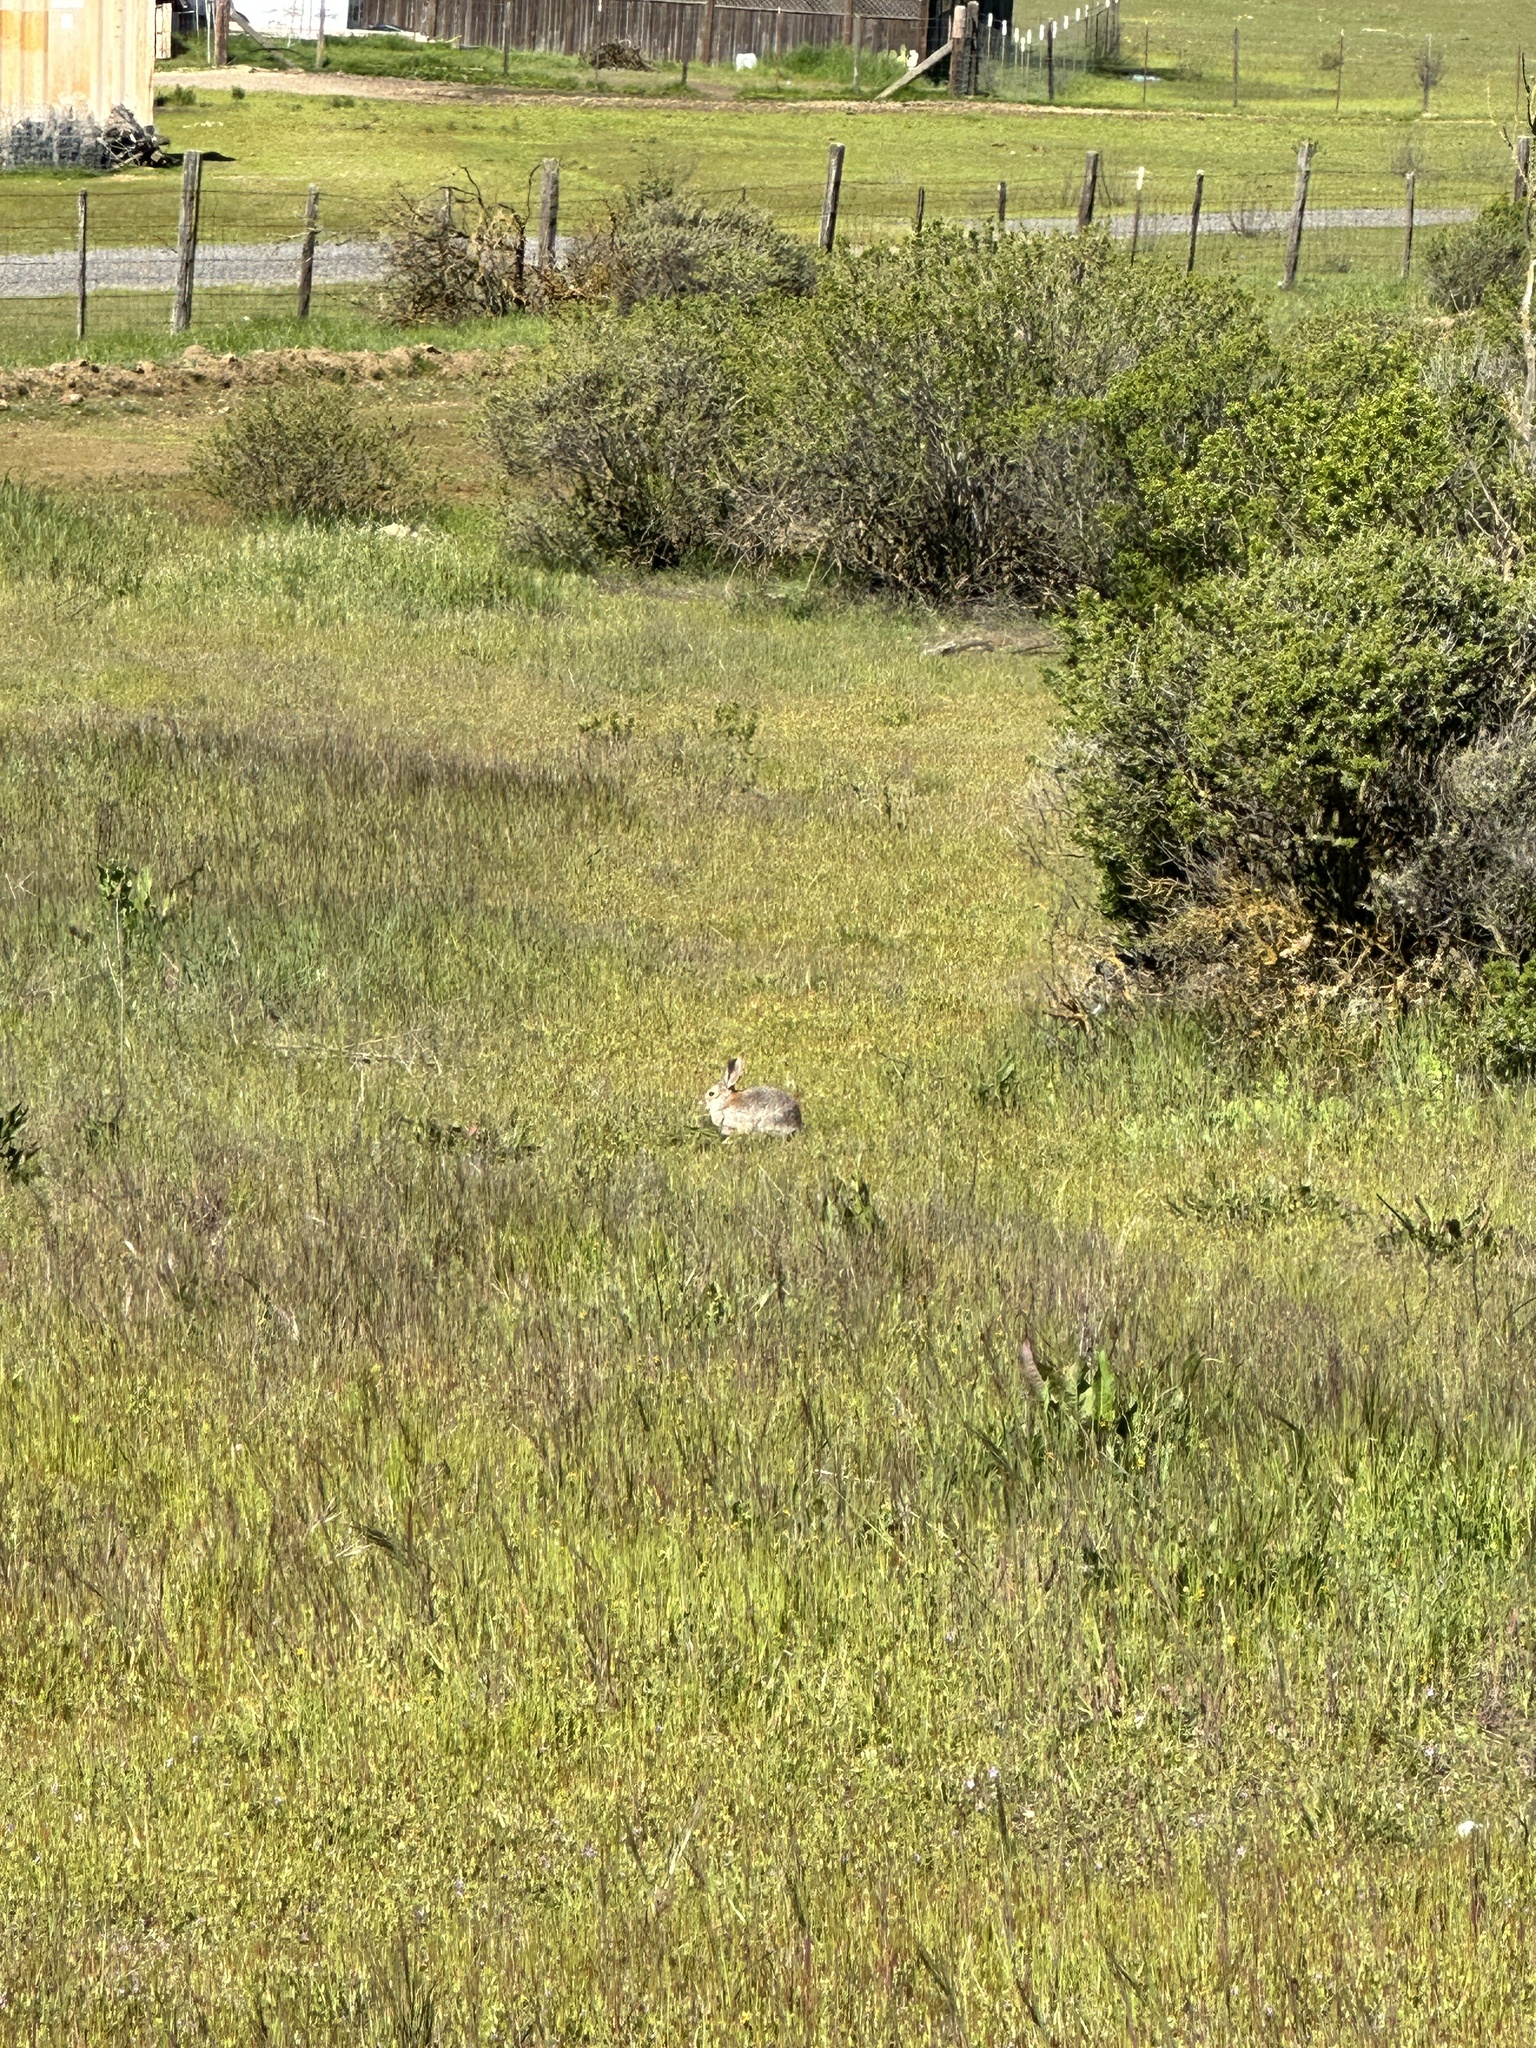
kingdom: Animalia
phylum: Chordata
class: Mammalia
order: Lagomorpha
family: Leporidae
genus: Sylvilagus
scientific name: Sylvilagus audubonii
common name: Desert cottontail
